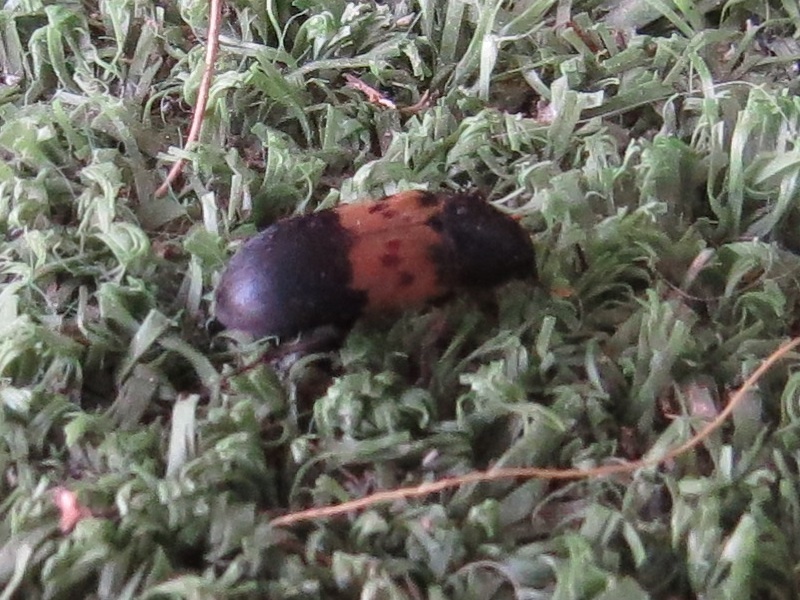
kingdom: Animalia
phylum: Arthropoda
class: Insecta
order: Coleoptera
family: Dermestidae
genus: Dermestes
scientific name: Dermestes lardarius
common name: Larder beetle
